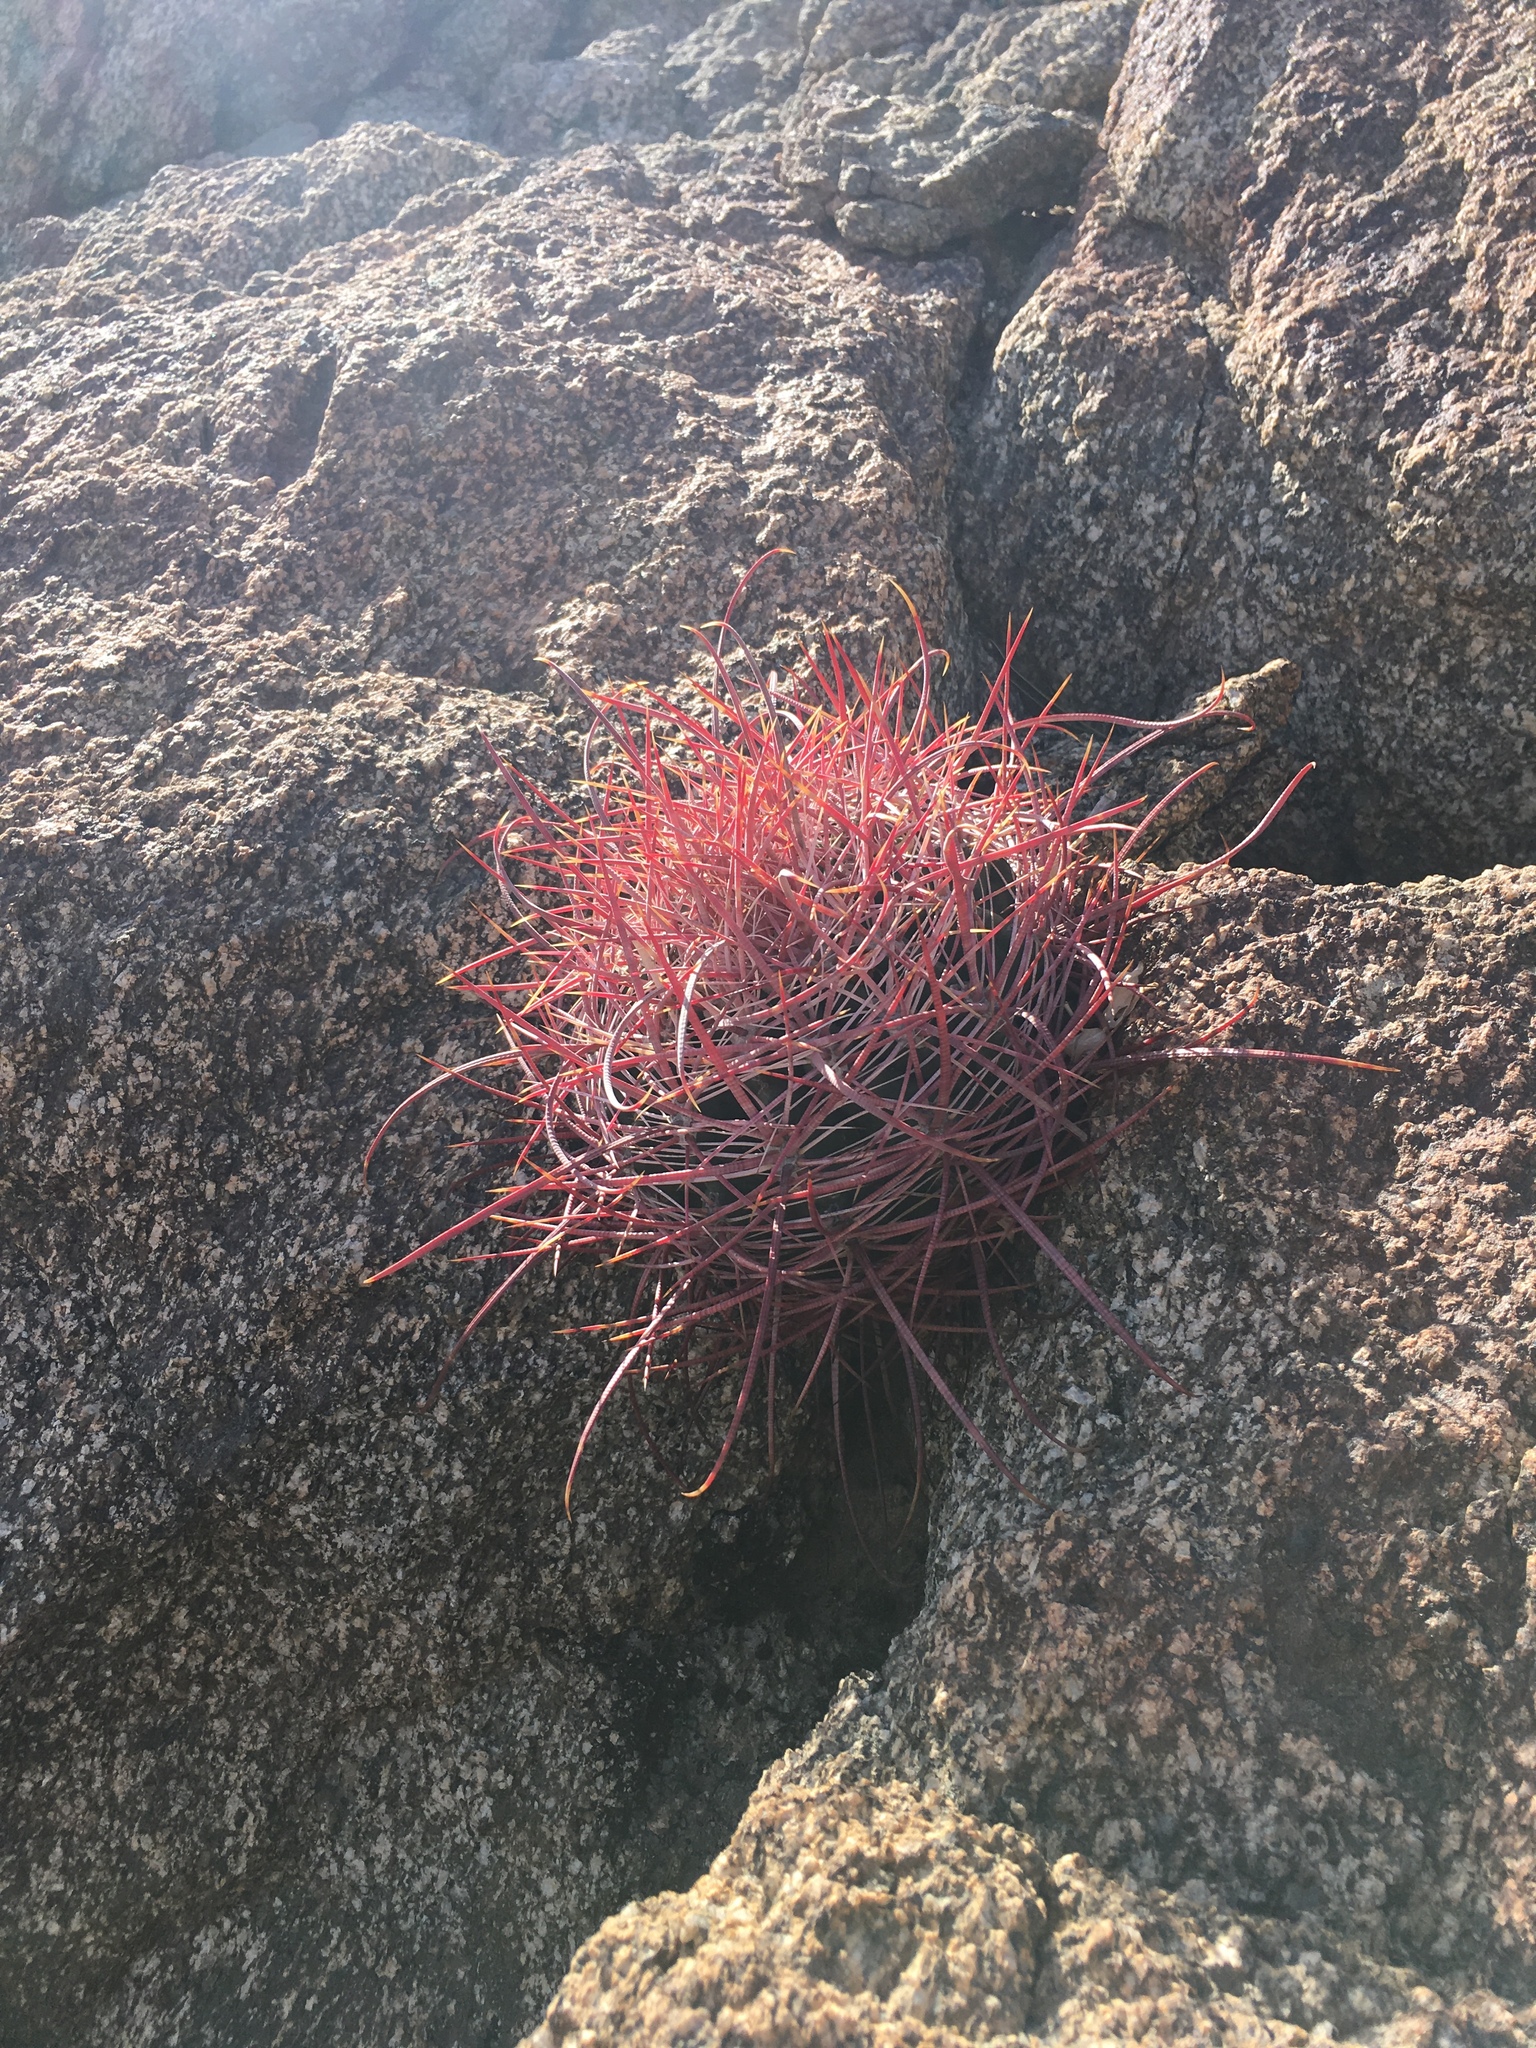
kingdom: Plantae
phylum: Tracheophyta
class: Magnoliopsida
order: Caryophyllales
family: Cactaceae
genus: Ferocactus
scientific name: Ferocactus cylindraceus
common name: California barrel cactus
